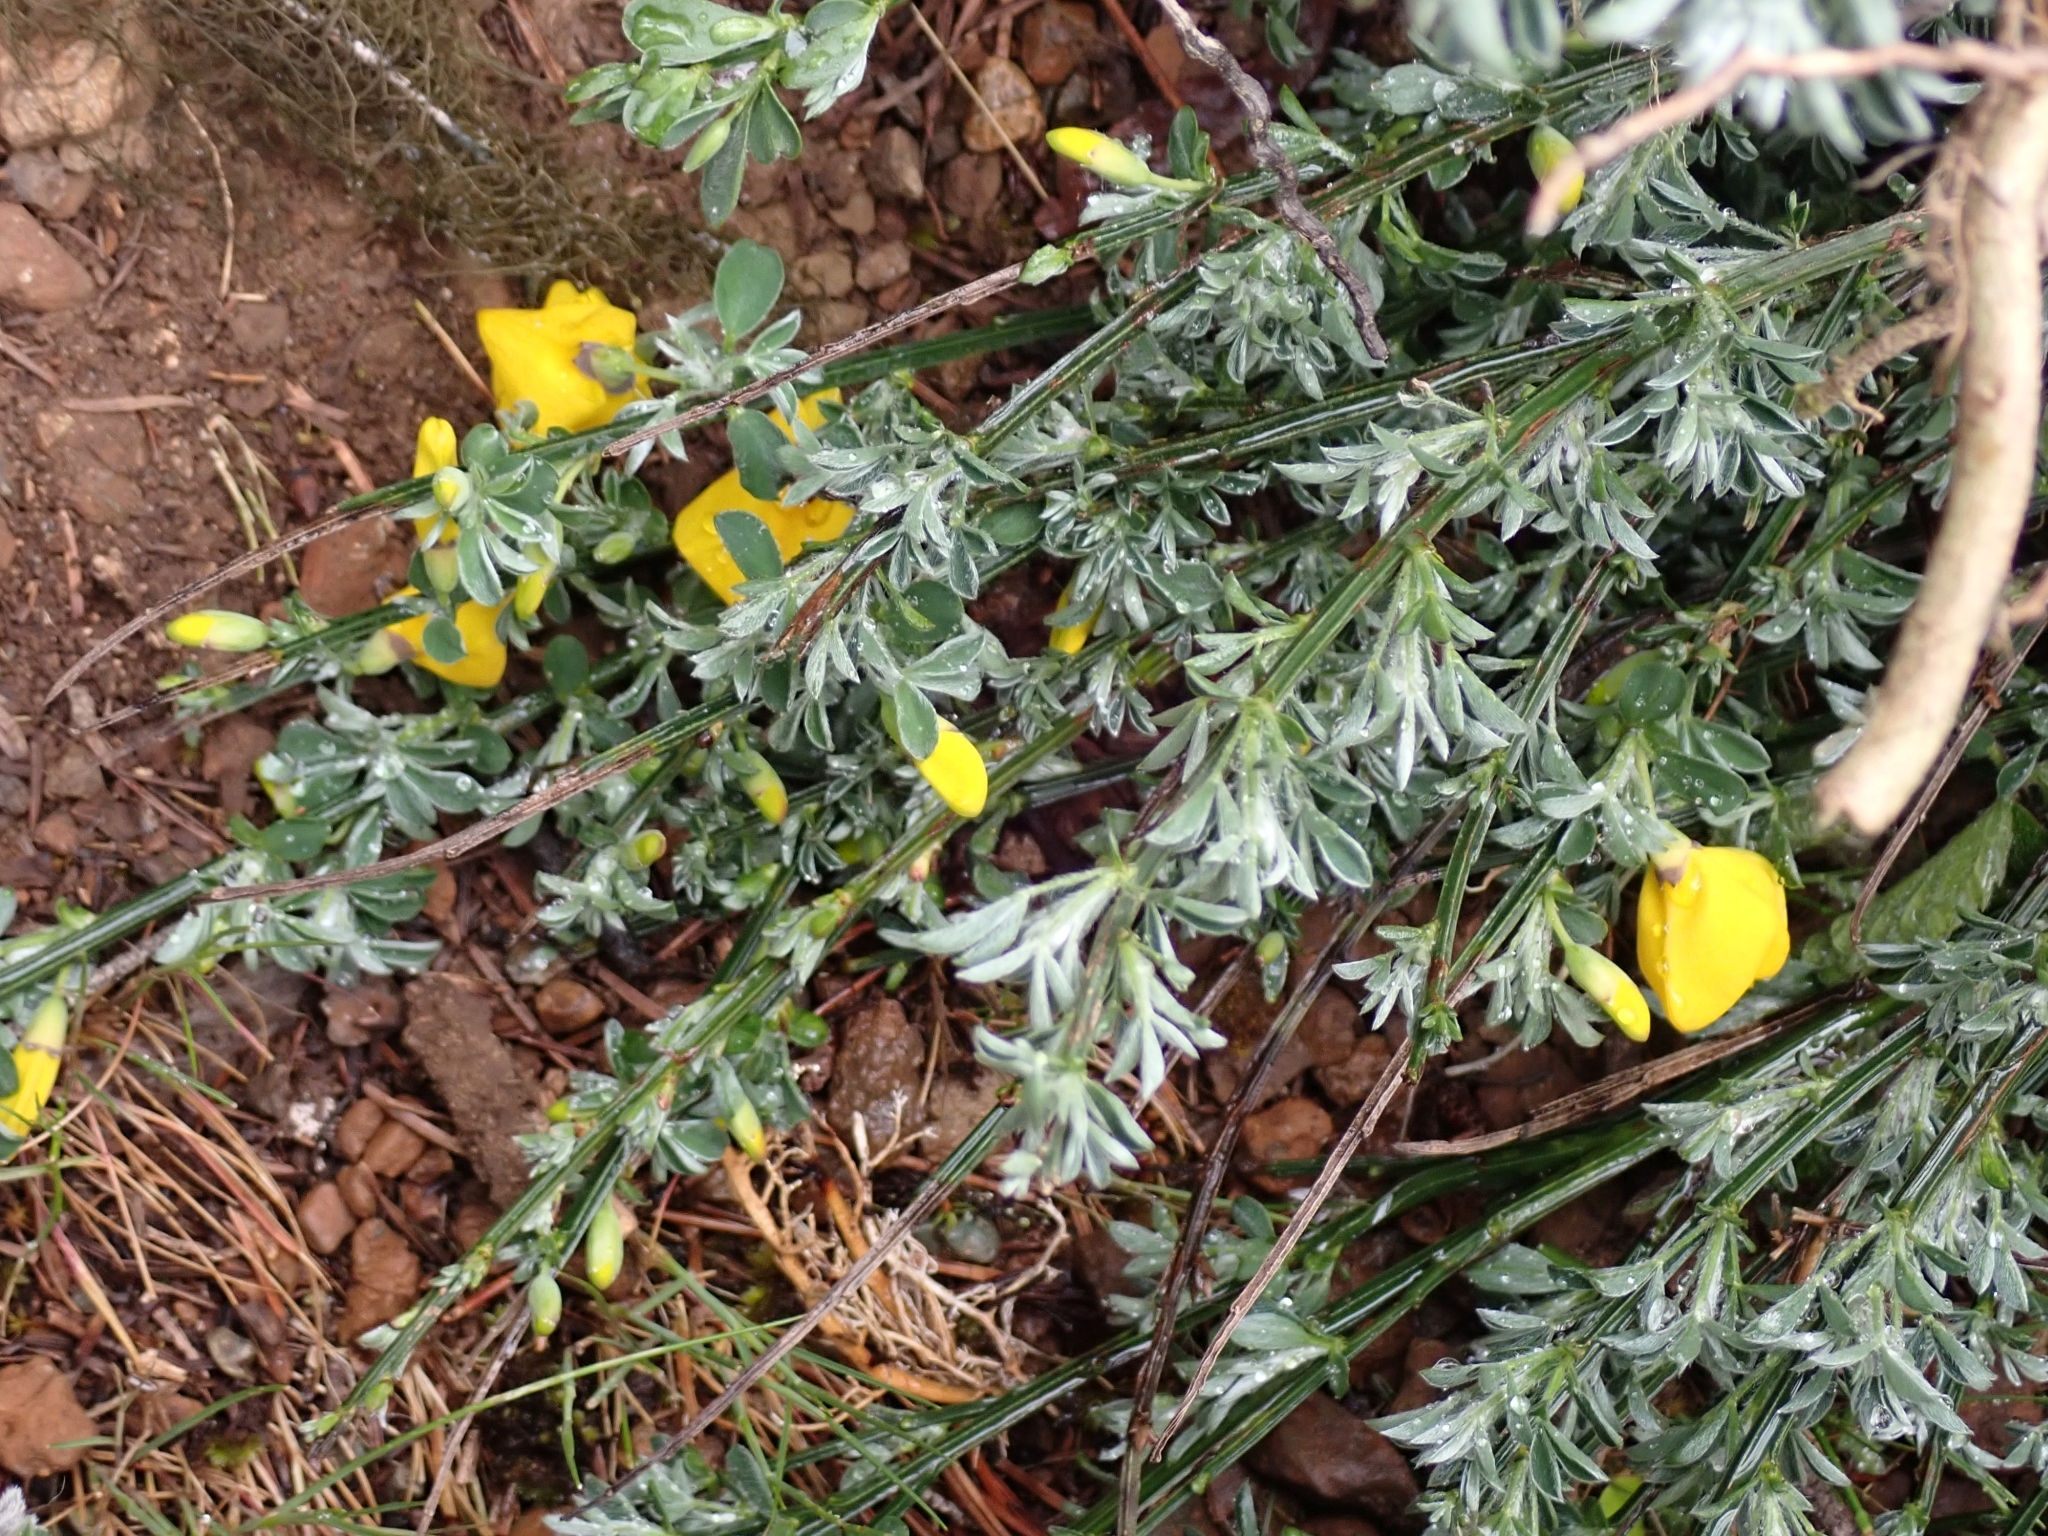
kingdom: Plantae
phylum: Tracheophyta
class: Magnoliopsida
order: Fabales
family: Fabaceae
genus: Cytisus
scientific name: Cytisus scoparius
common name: Scotch broom
